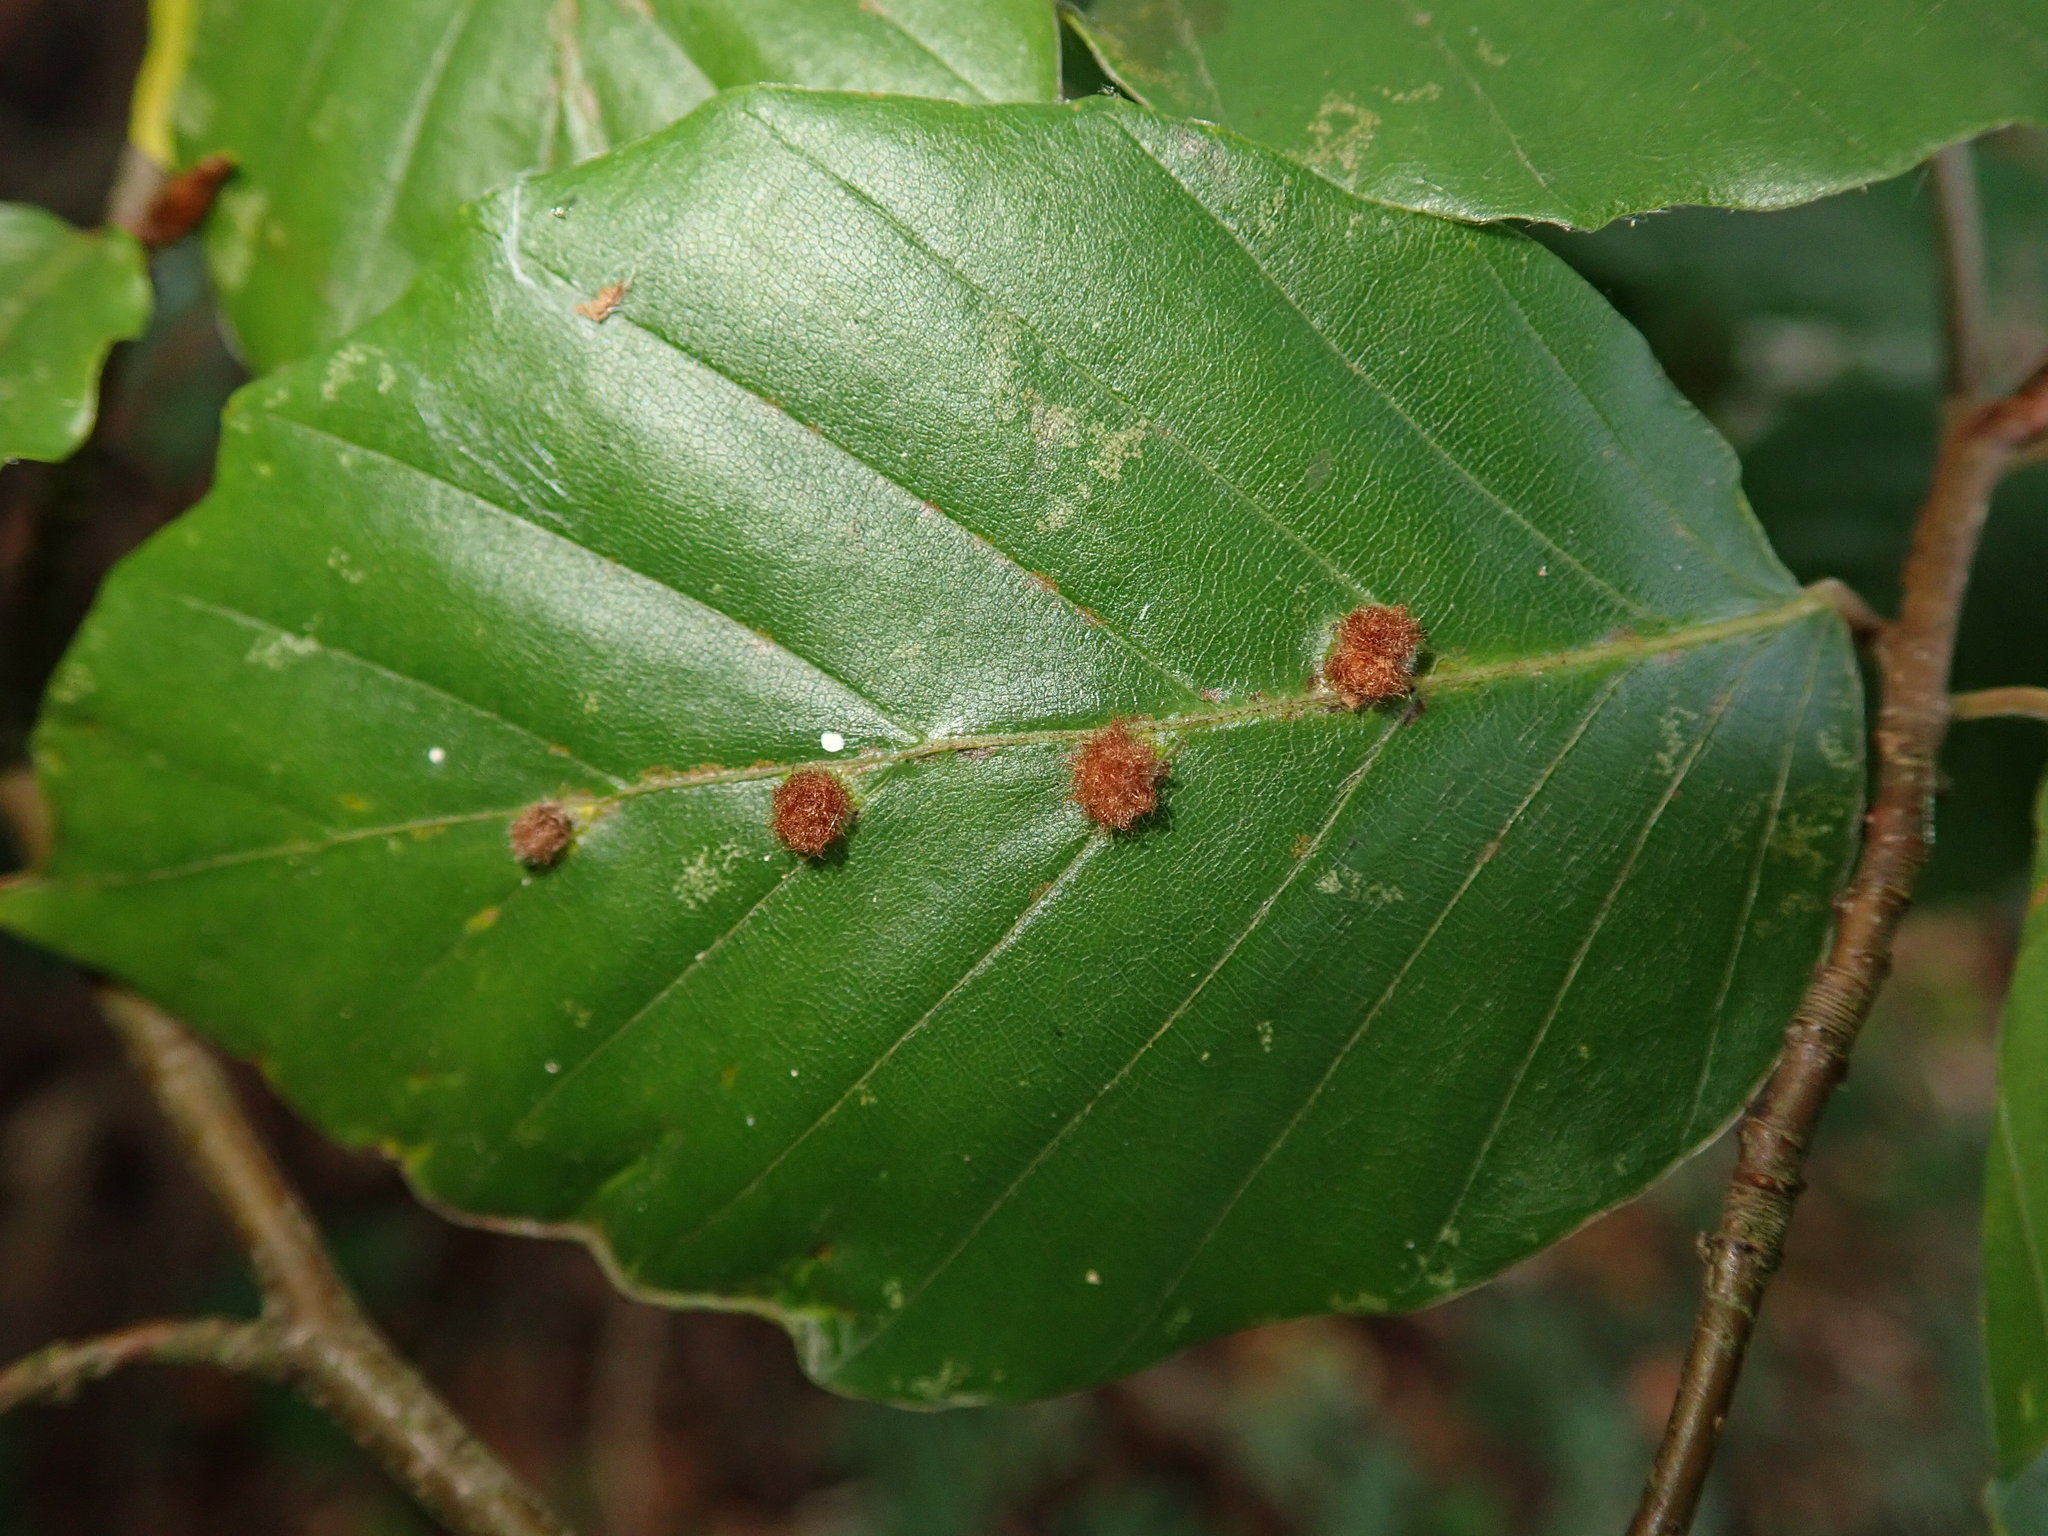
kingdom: Animalia
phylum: Arthropoda
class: Insecta
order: Diptera
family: Cecidomyiidae
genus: Hartigiola
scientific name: Hartigiola annulipes
